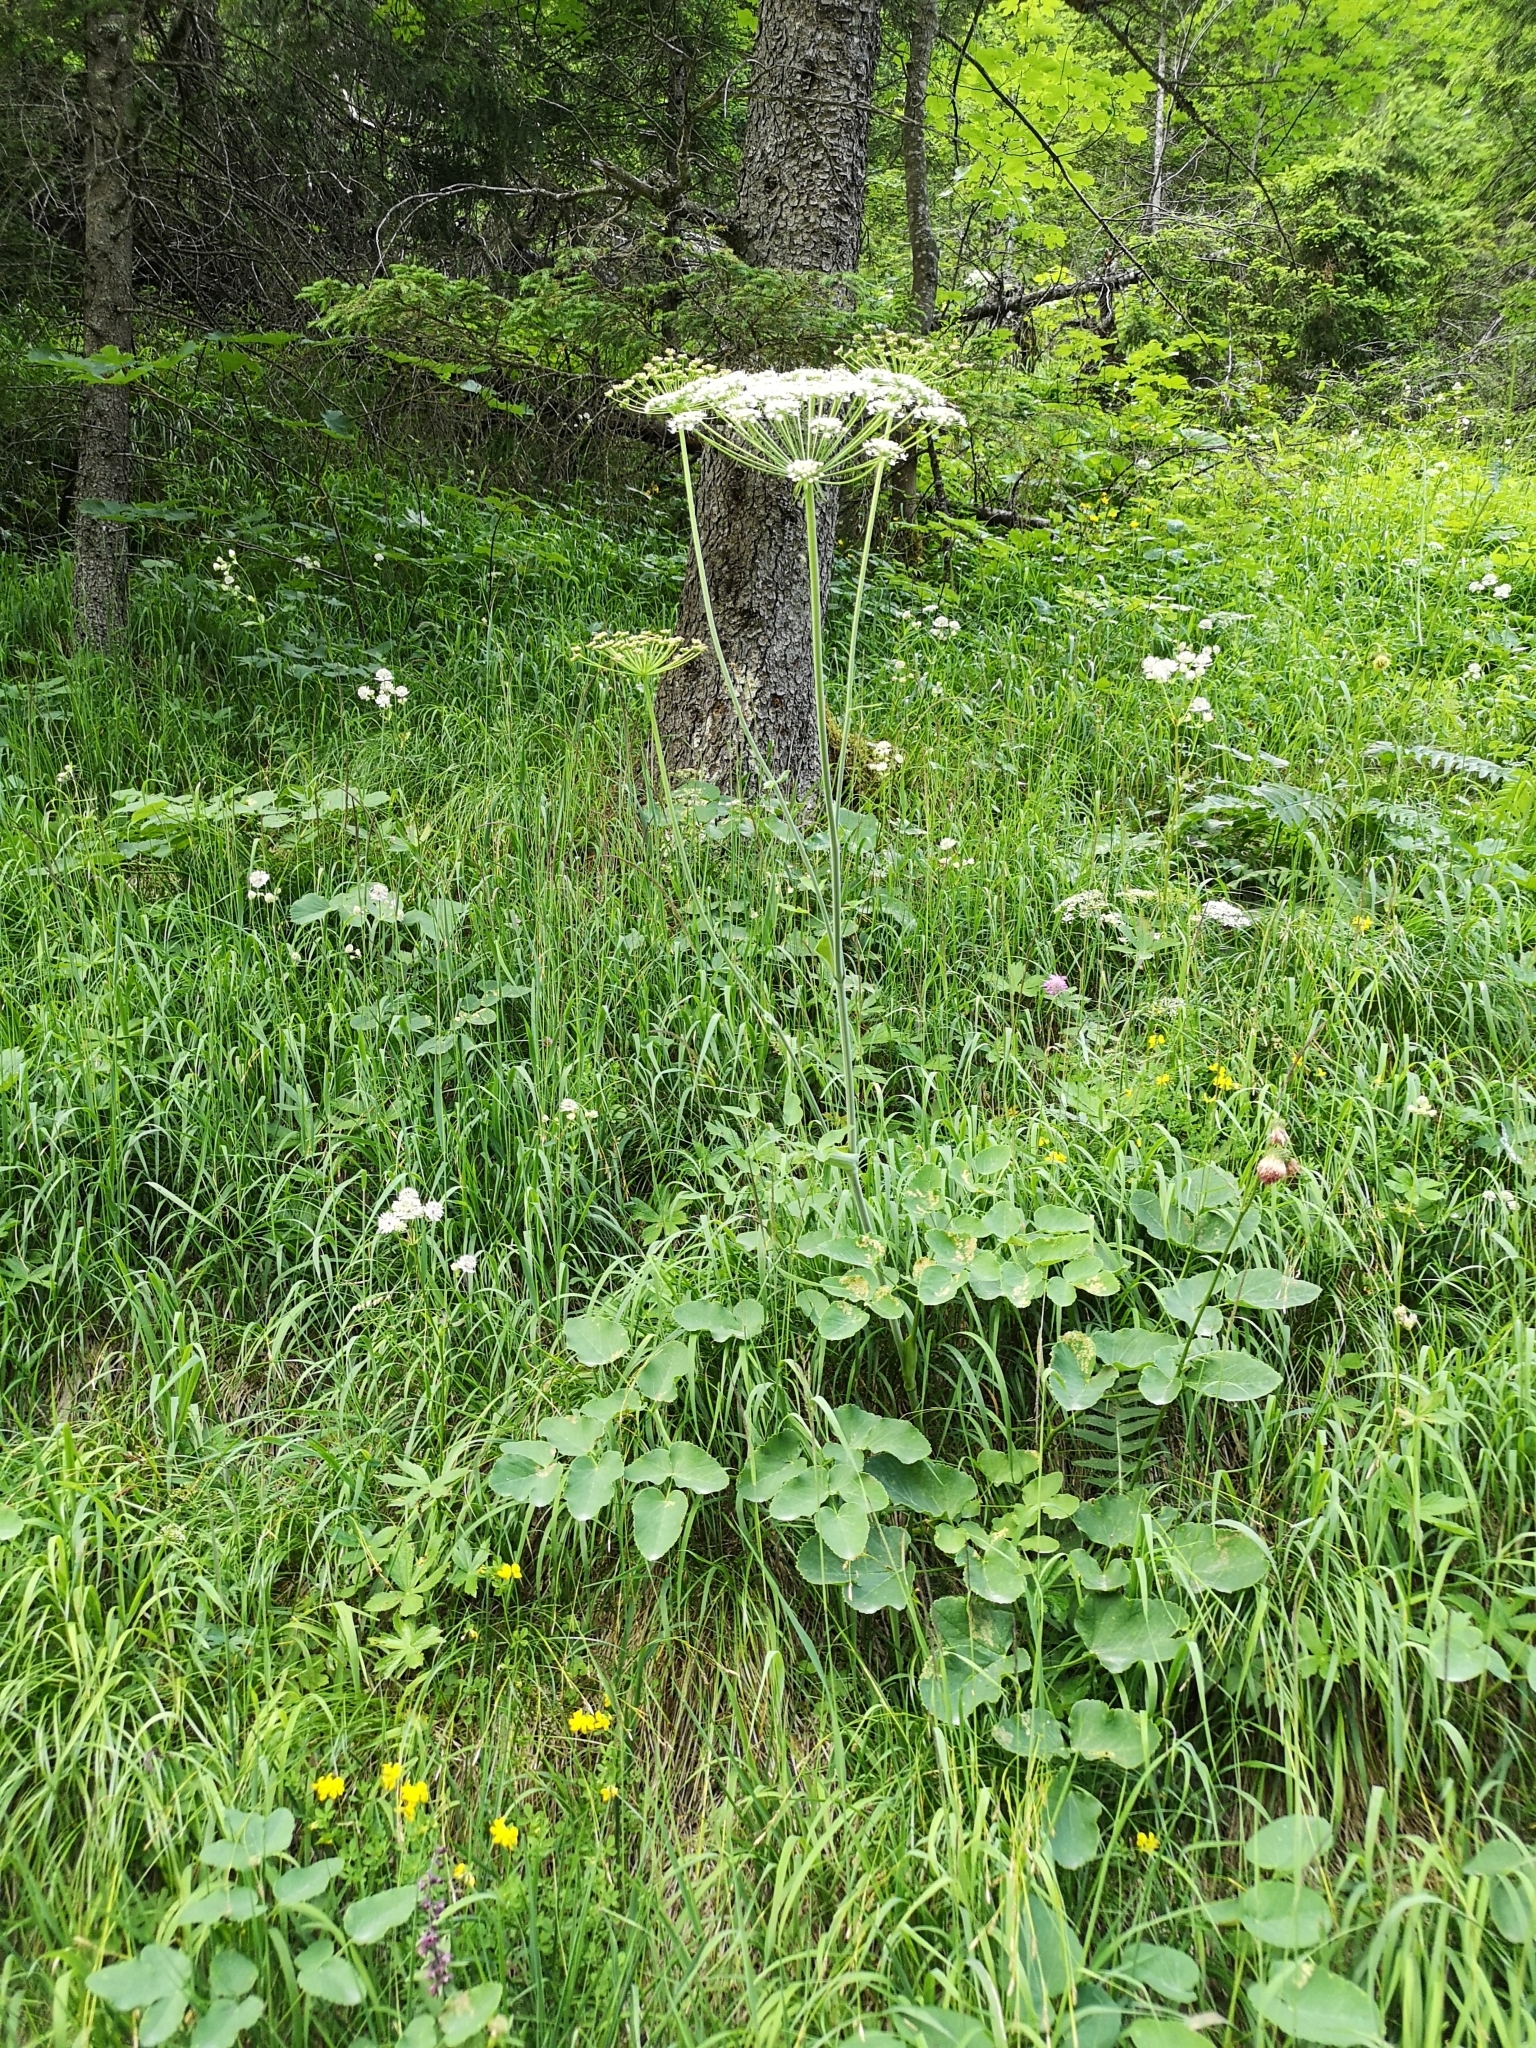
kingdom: Plantae
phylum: Tracheophyta
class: Magnoliopsida
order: Apiales
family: Apiaceae
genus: Laserpitium
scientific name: Laserpitium latifolium
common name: Broadleaf sermountain
